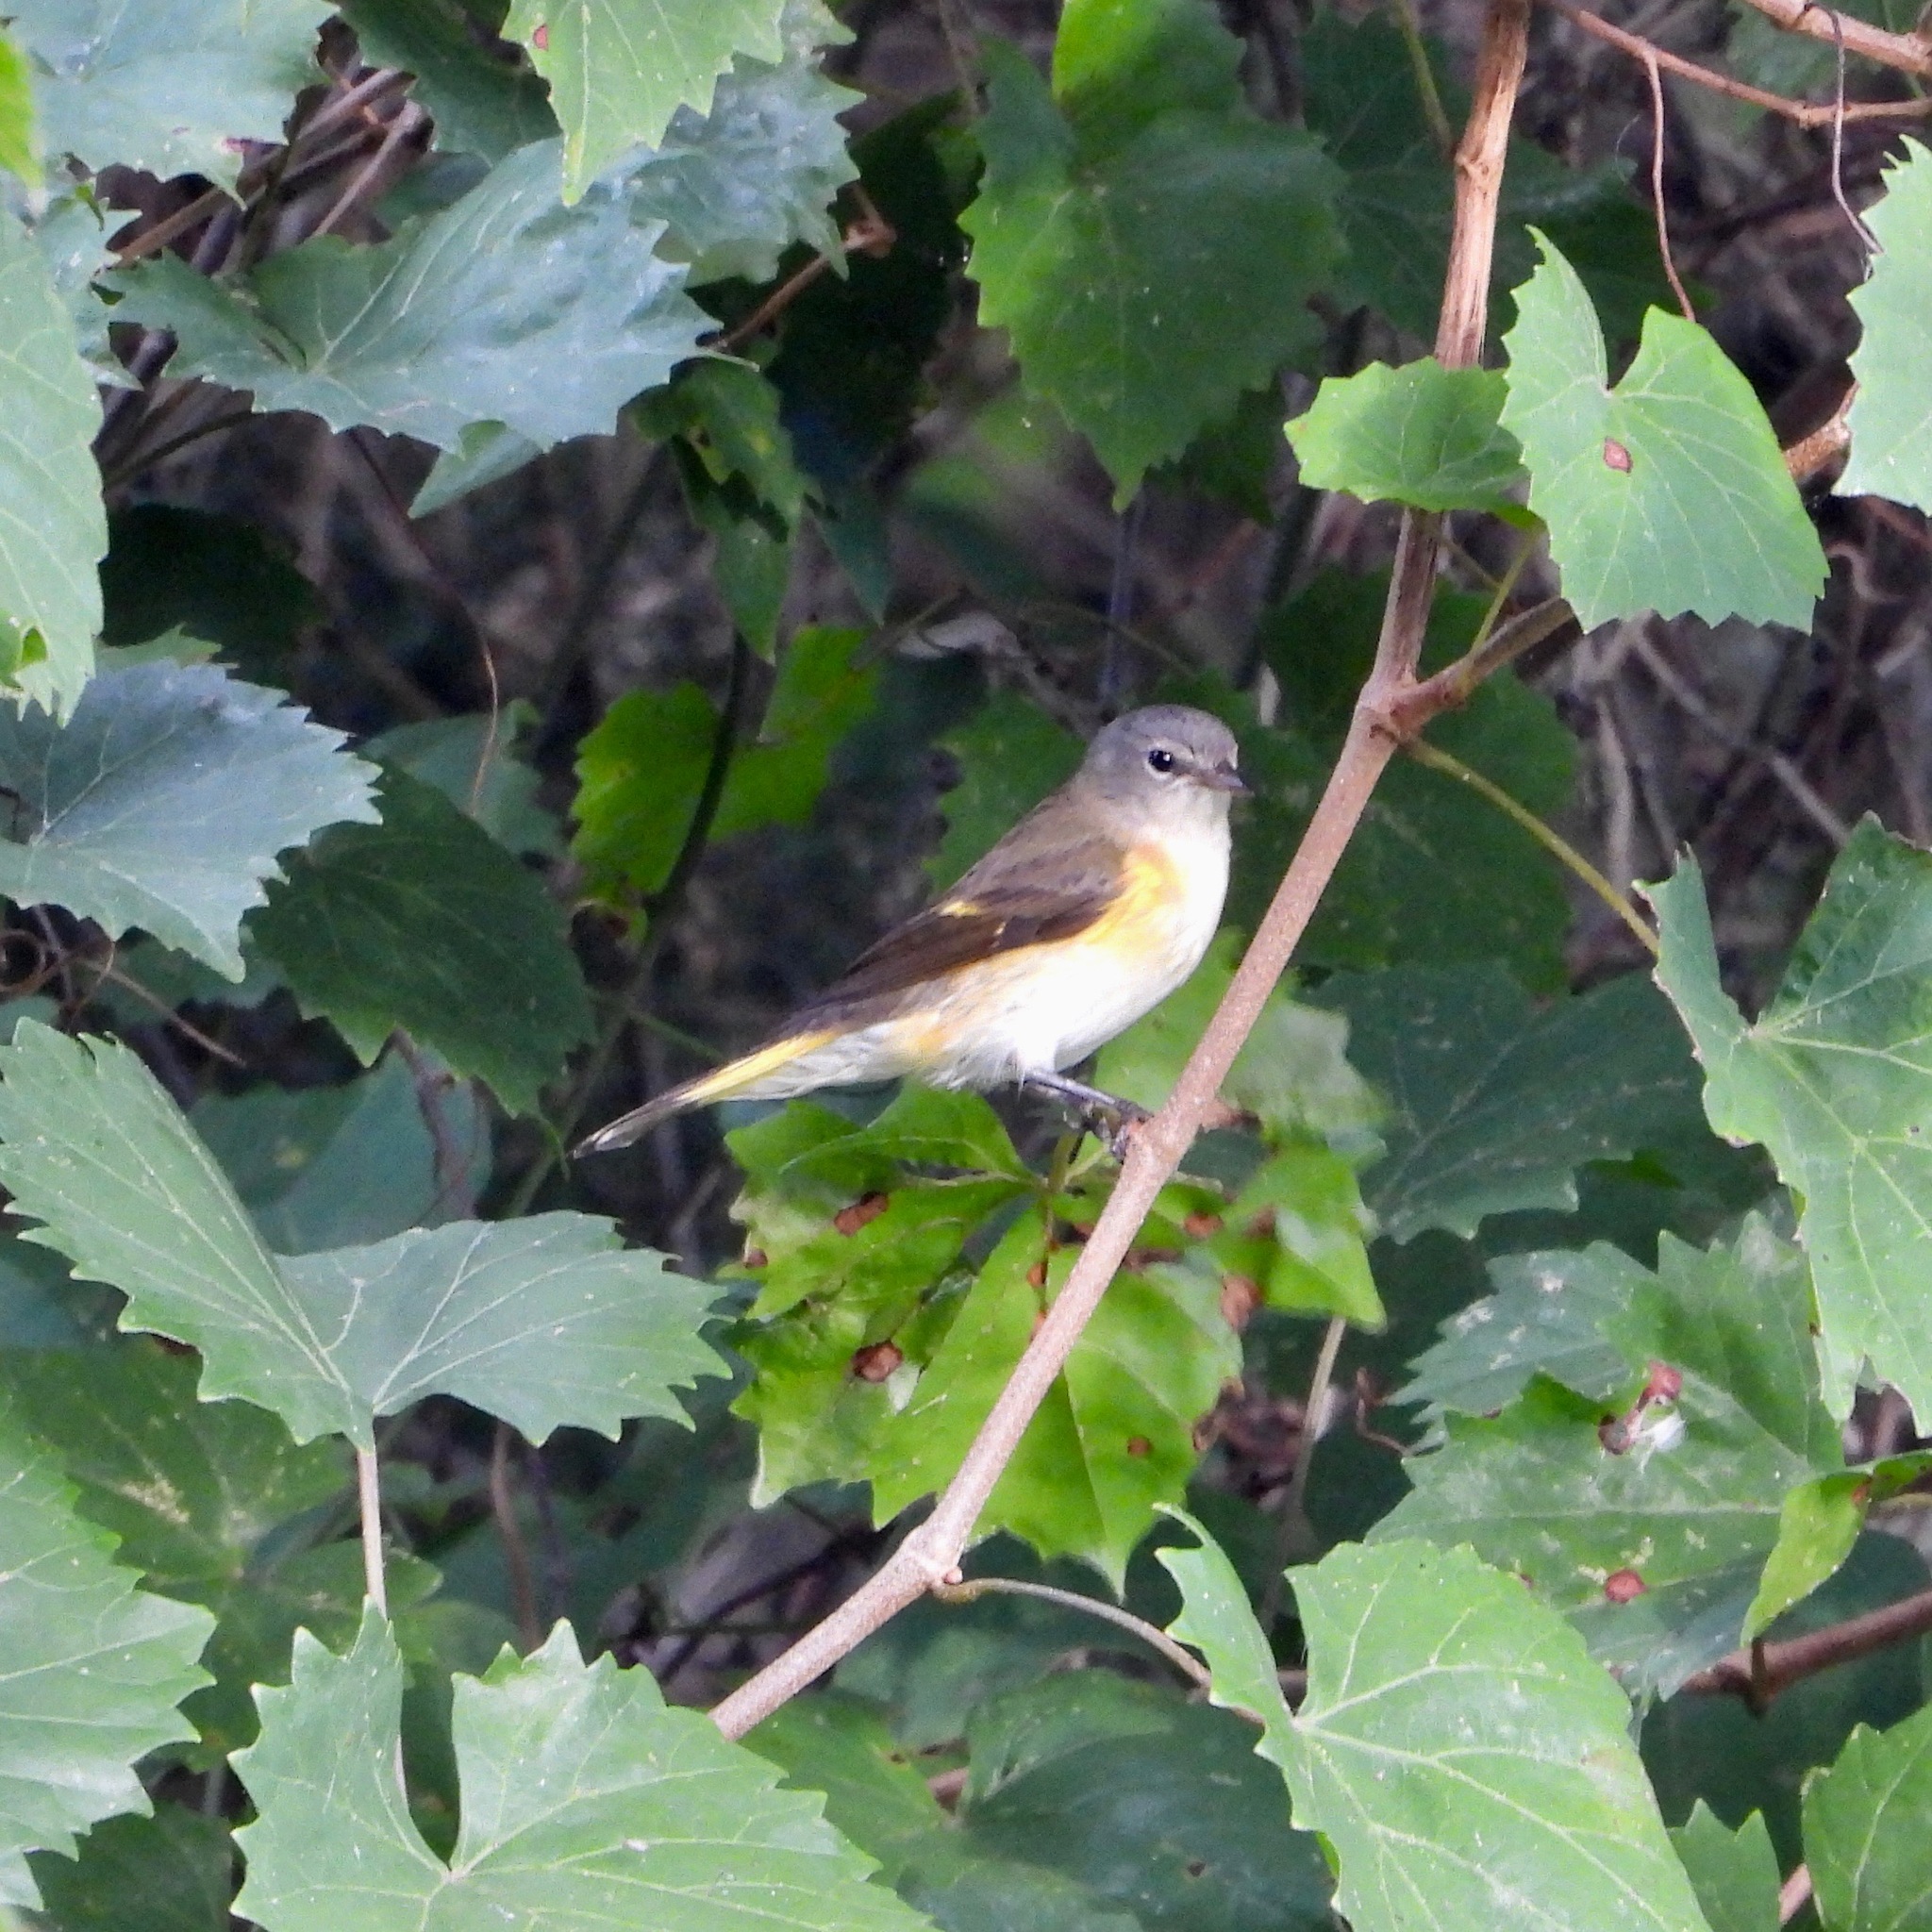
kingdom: Animalia
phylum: Chordata
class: Aves
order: Passeriformes
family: Parulidae
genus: Setophaga
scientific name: Setophaga ruticilla
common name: American redstart
